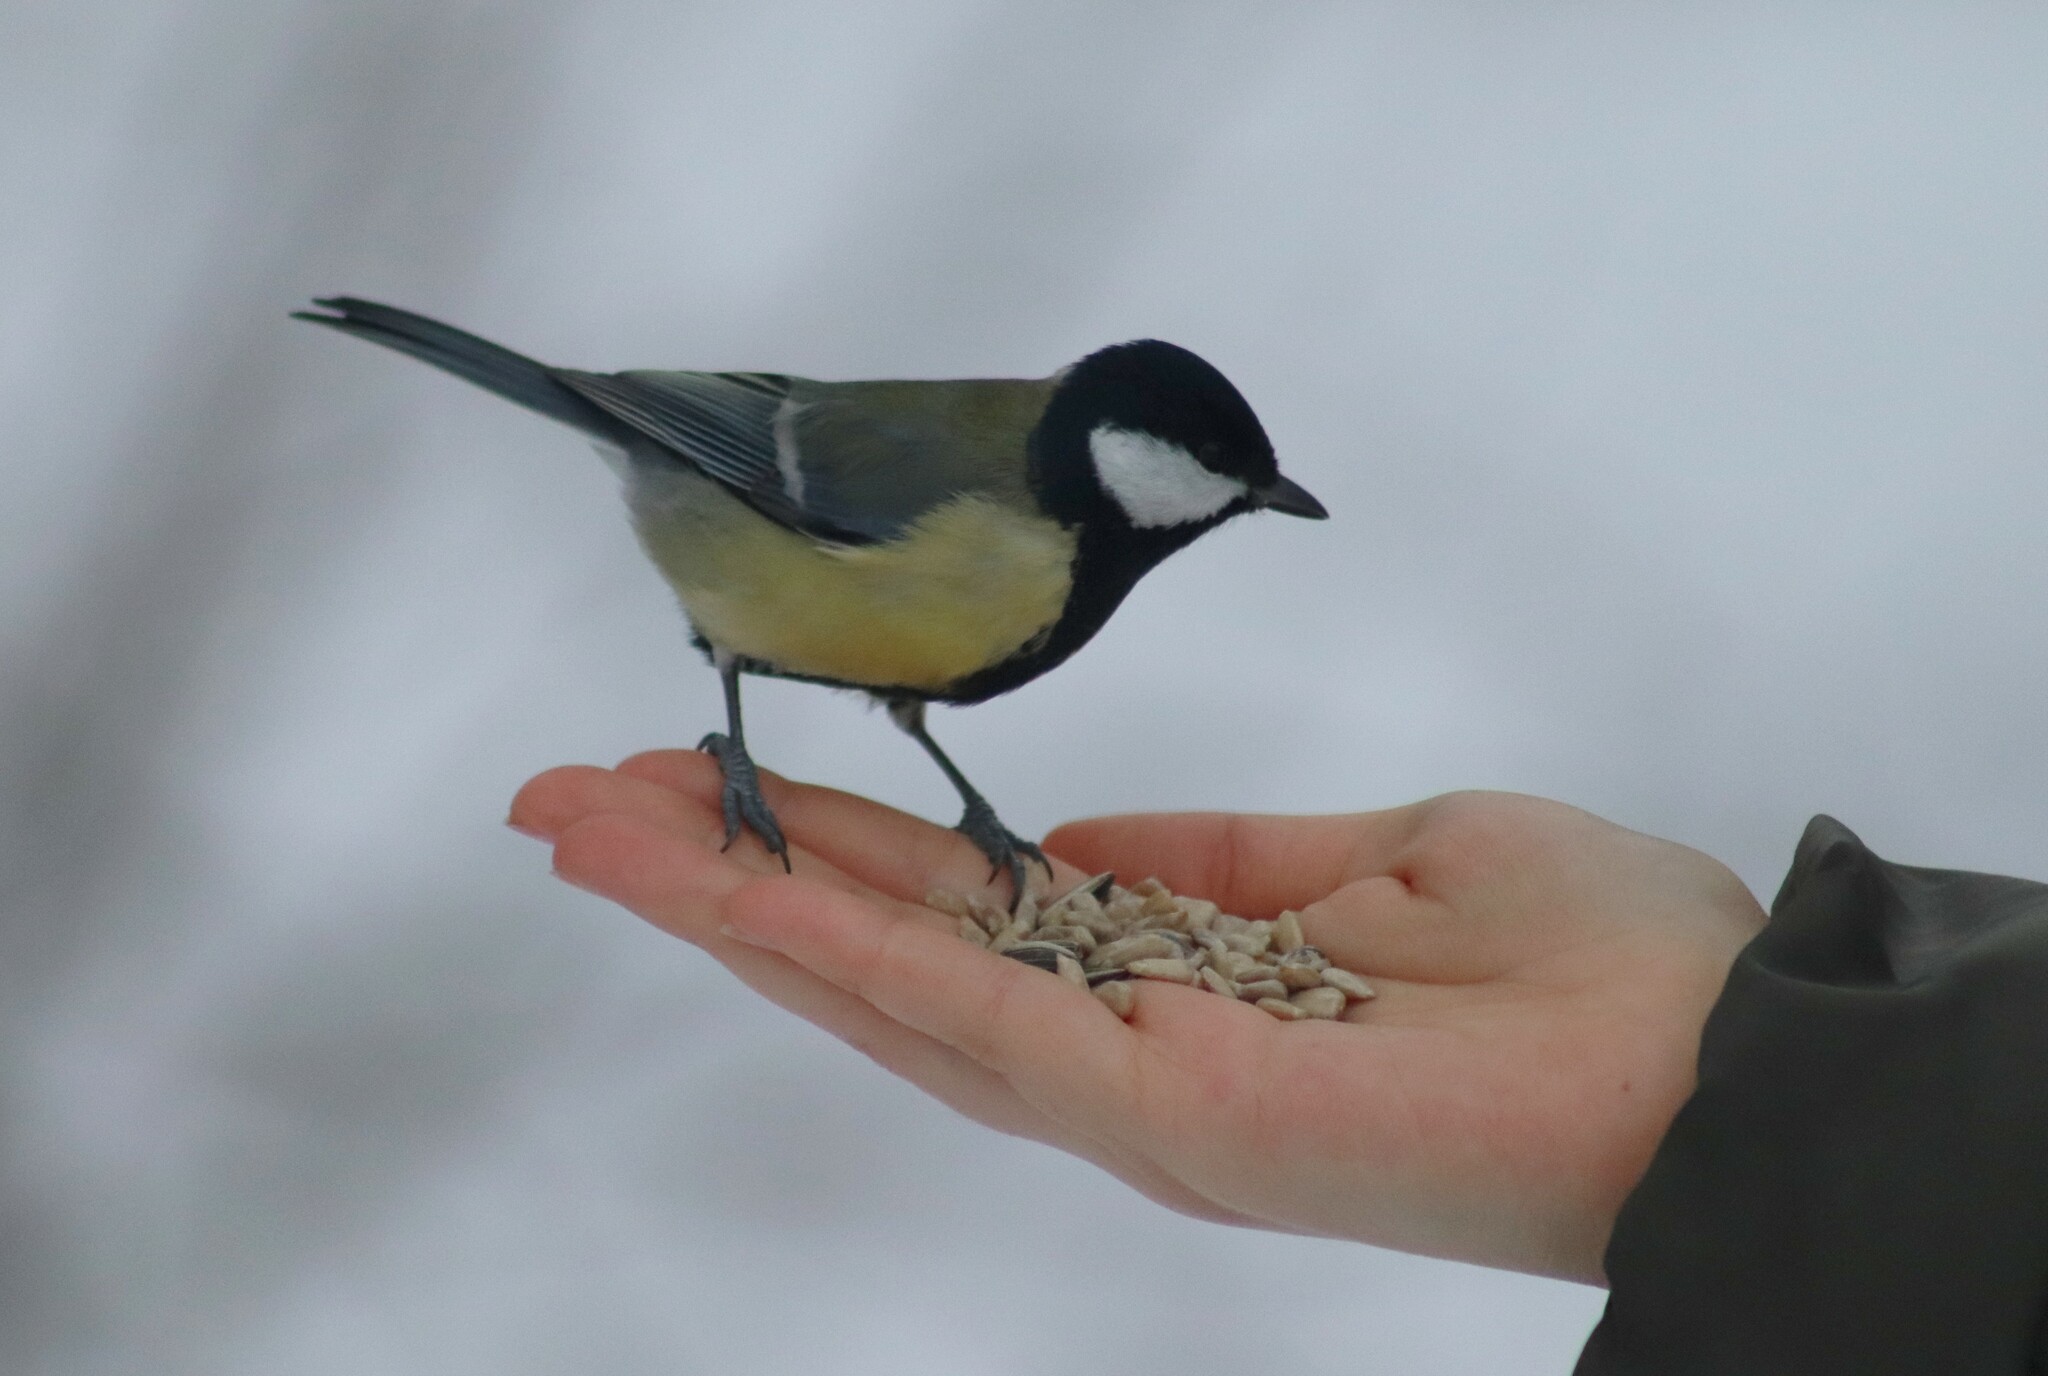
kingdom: Animalia
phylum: Chordata
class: Aves
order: Passeriformes
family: Paridae
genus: Parus
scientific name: Parus major
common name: Great tit
